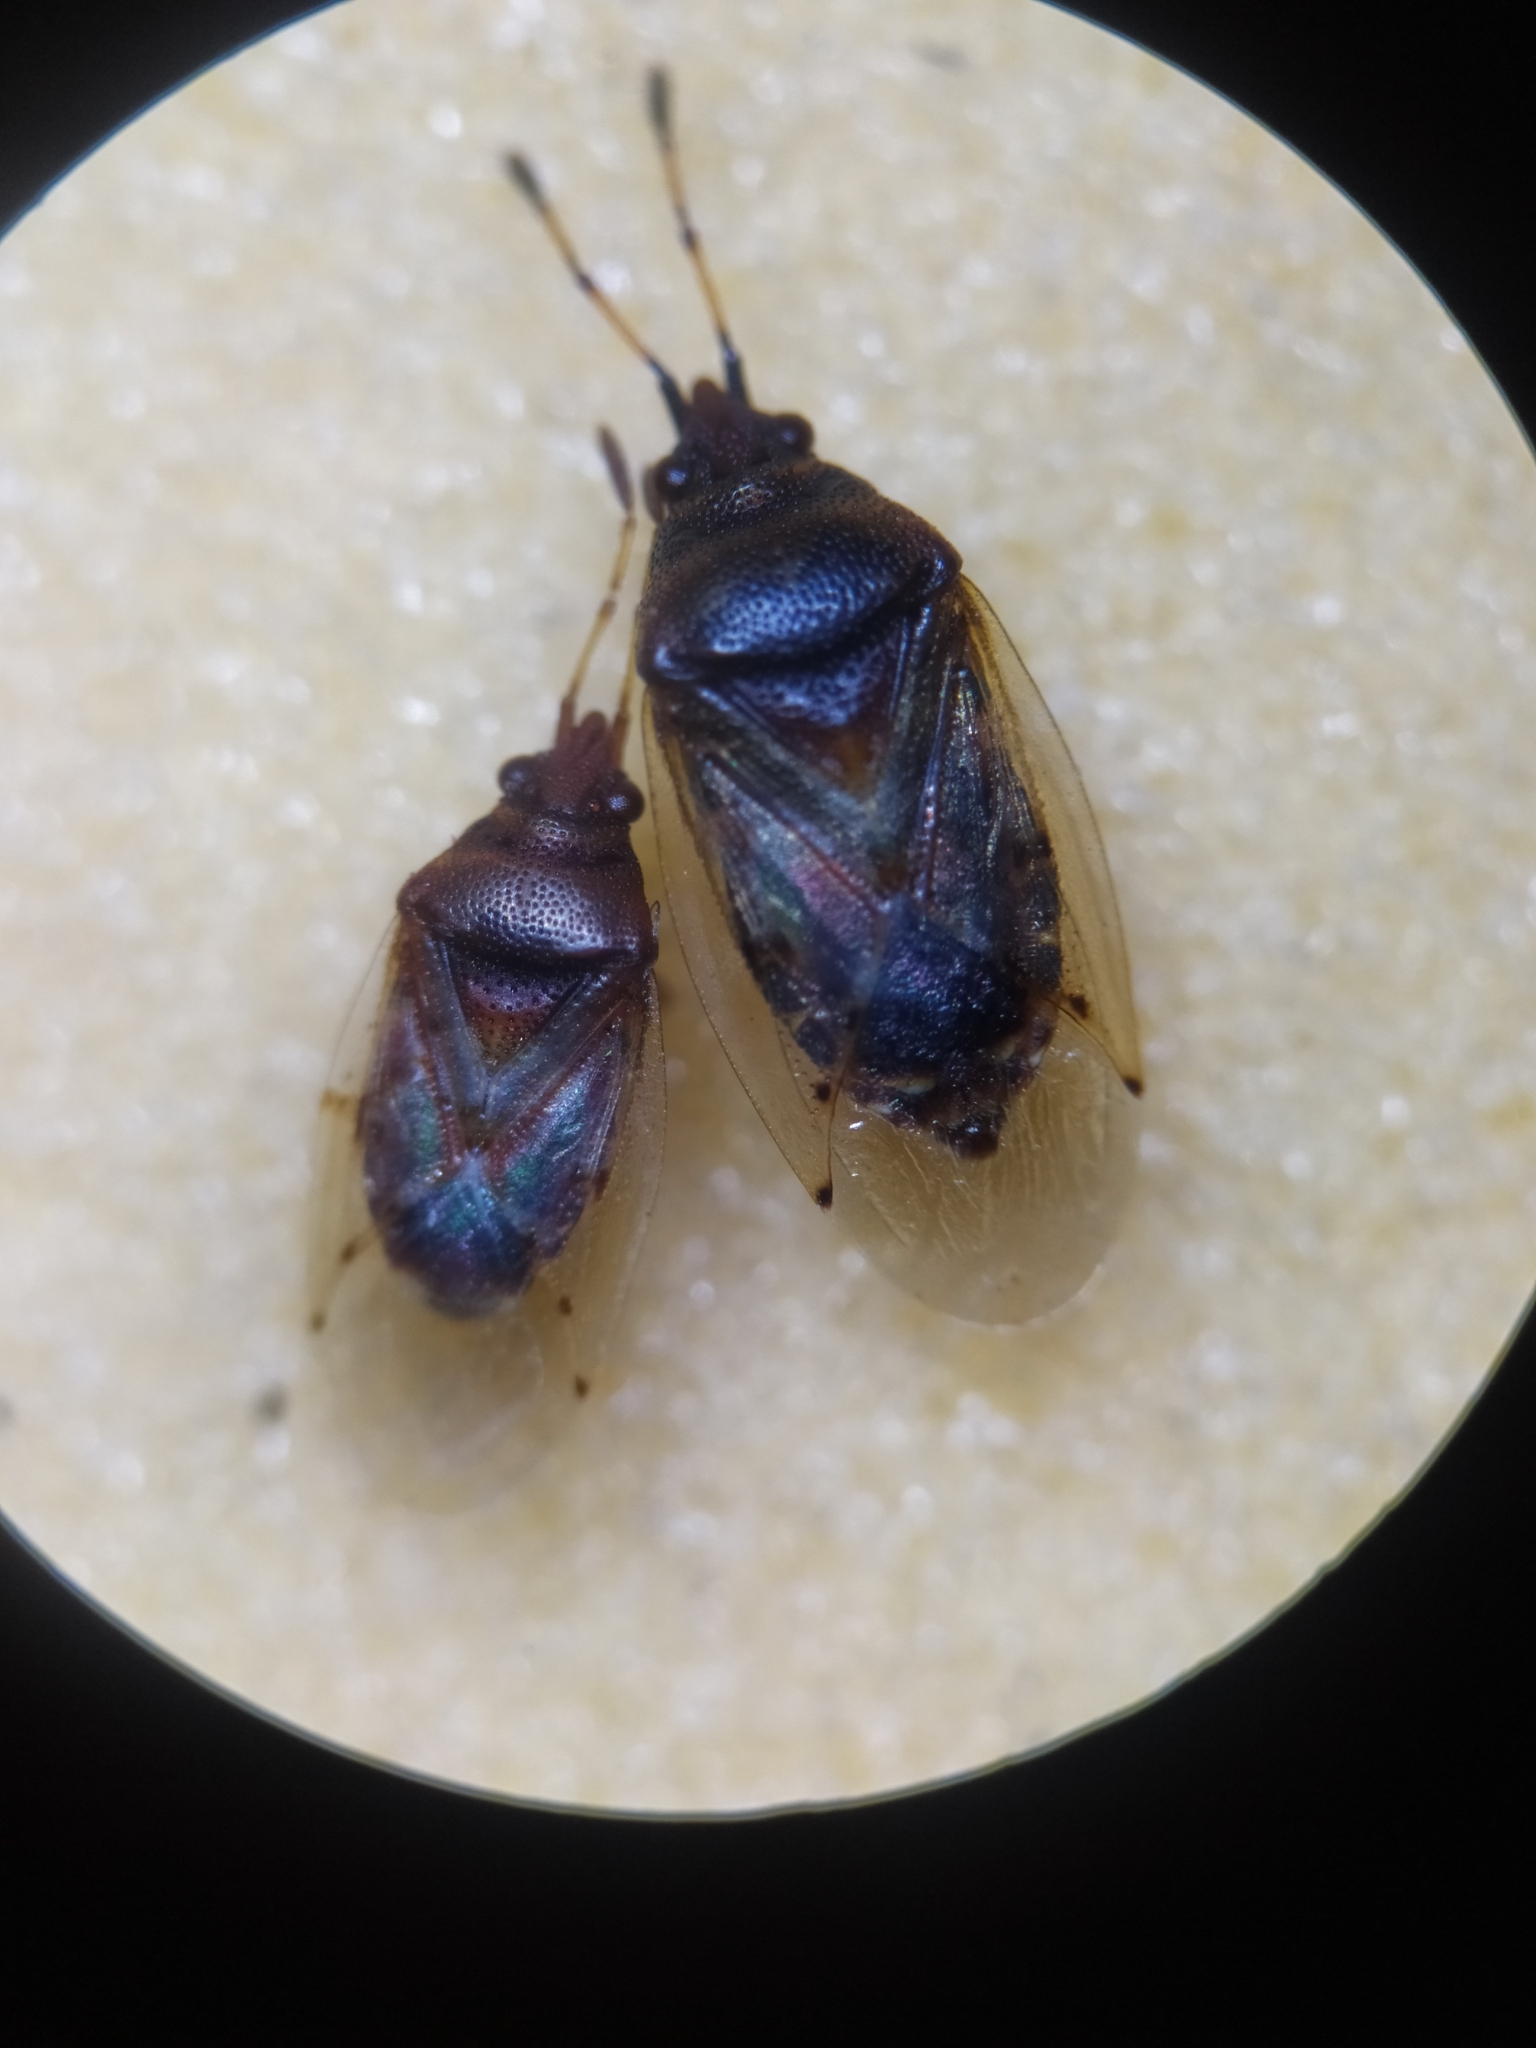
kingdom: Animalia
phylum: Arthropoda
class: Insecta
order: Hemiptera
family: Lygaeidae
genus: Kleidocerys
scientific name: Kleidocerys resedae
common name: Birch catkin bug
